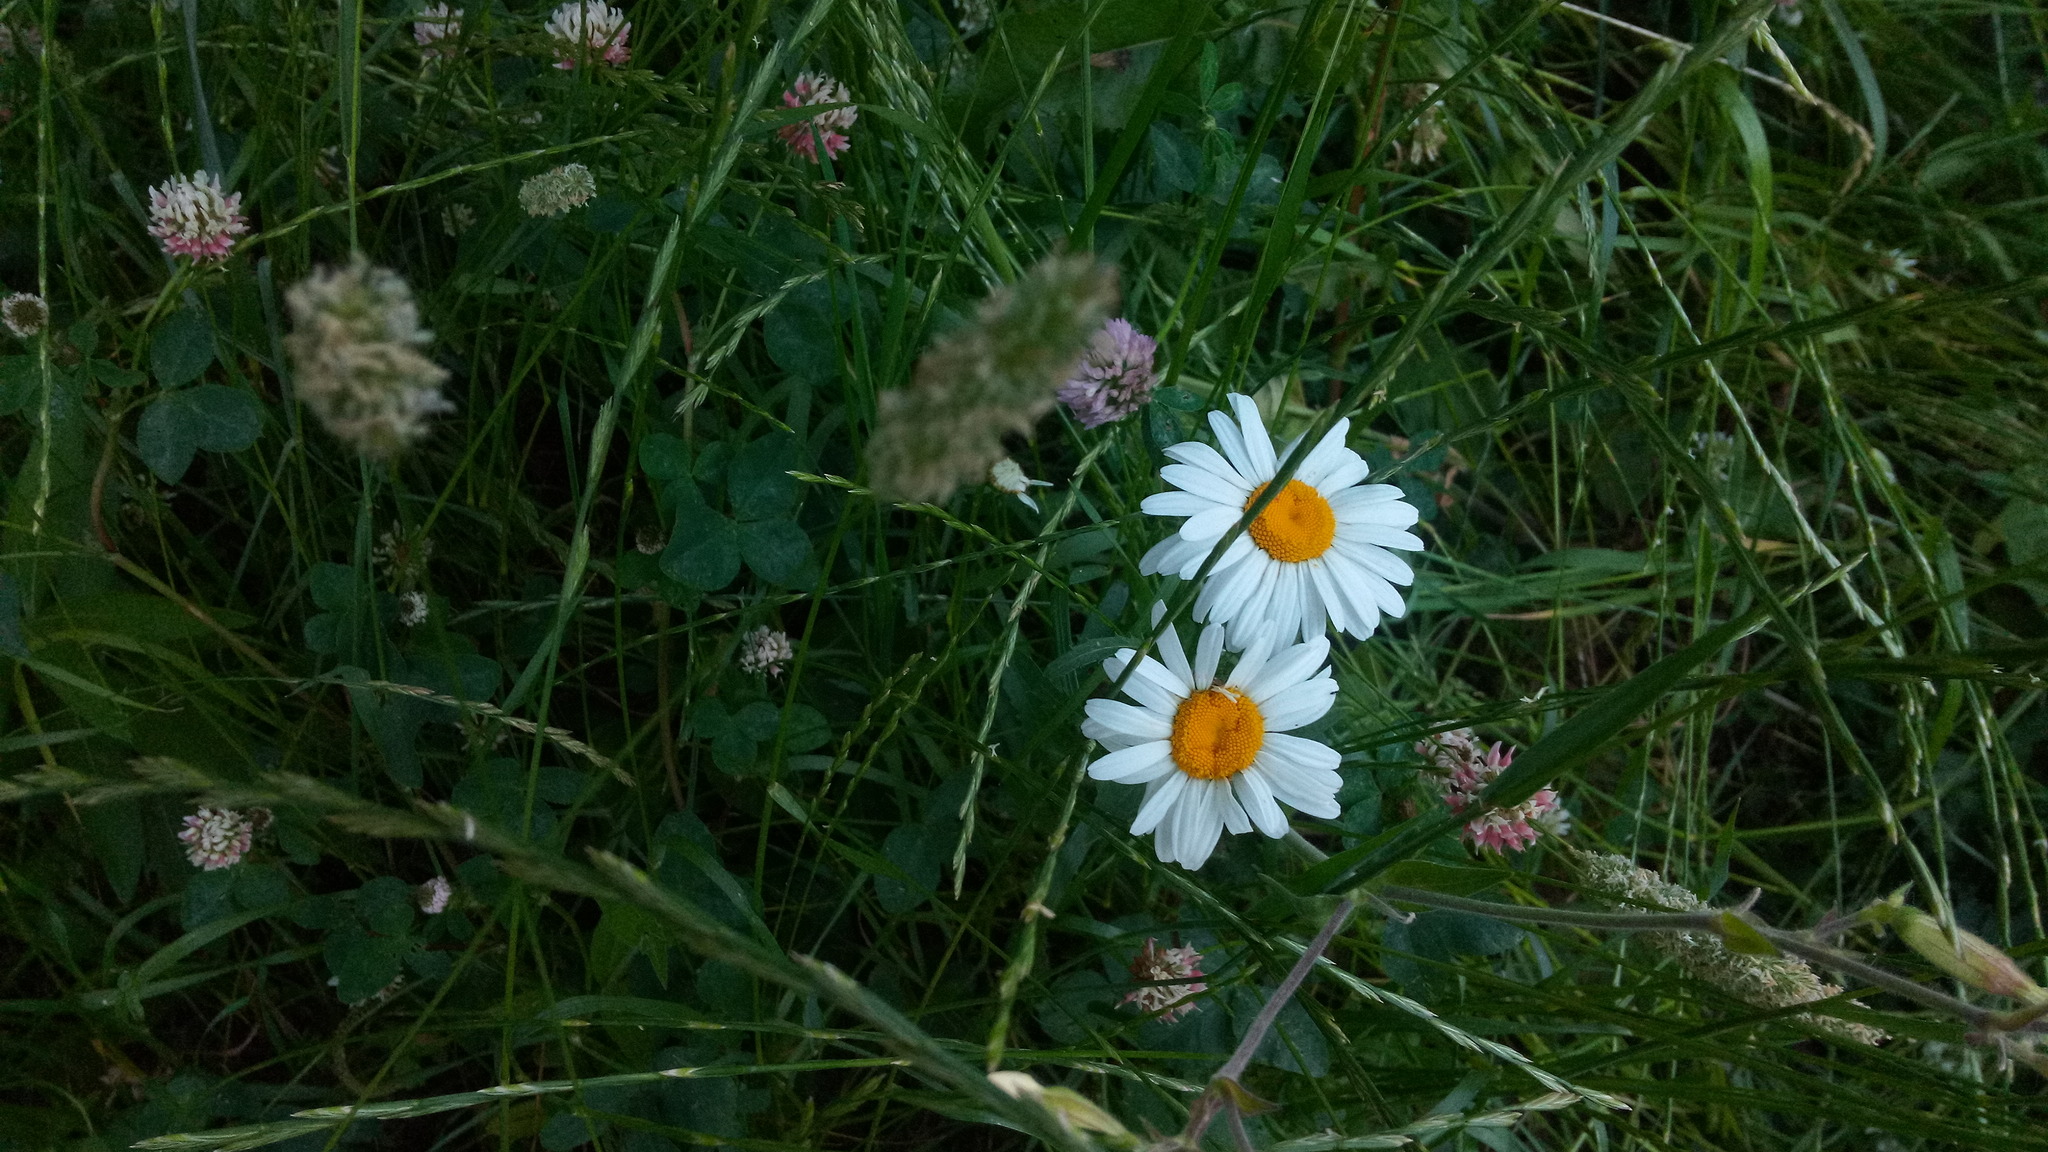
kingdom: Plantae
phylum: Tracheophyta
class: Magnoliopsida
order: Asterales
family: Asteraceae
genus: Leucanthemum
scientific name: Leucanthemum vulgare
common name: Oxeye daisy
